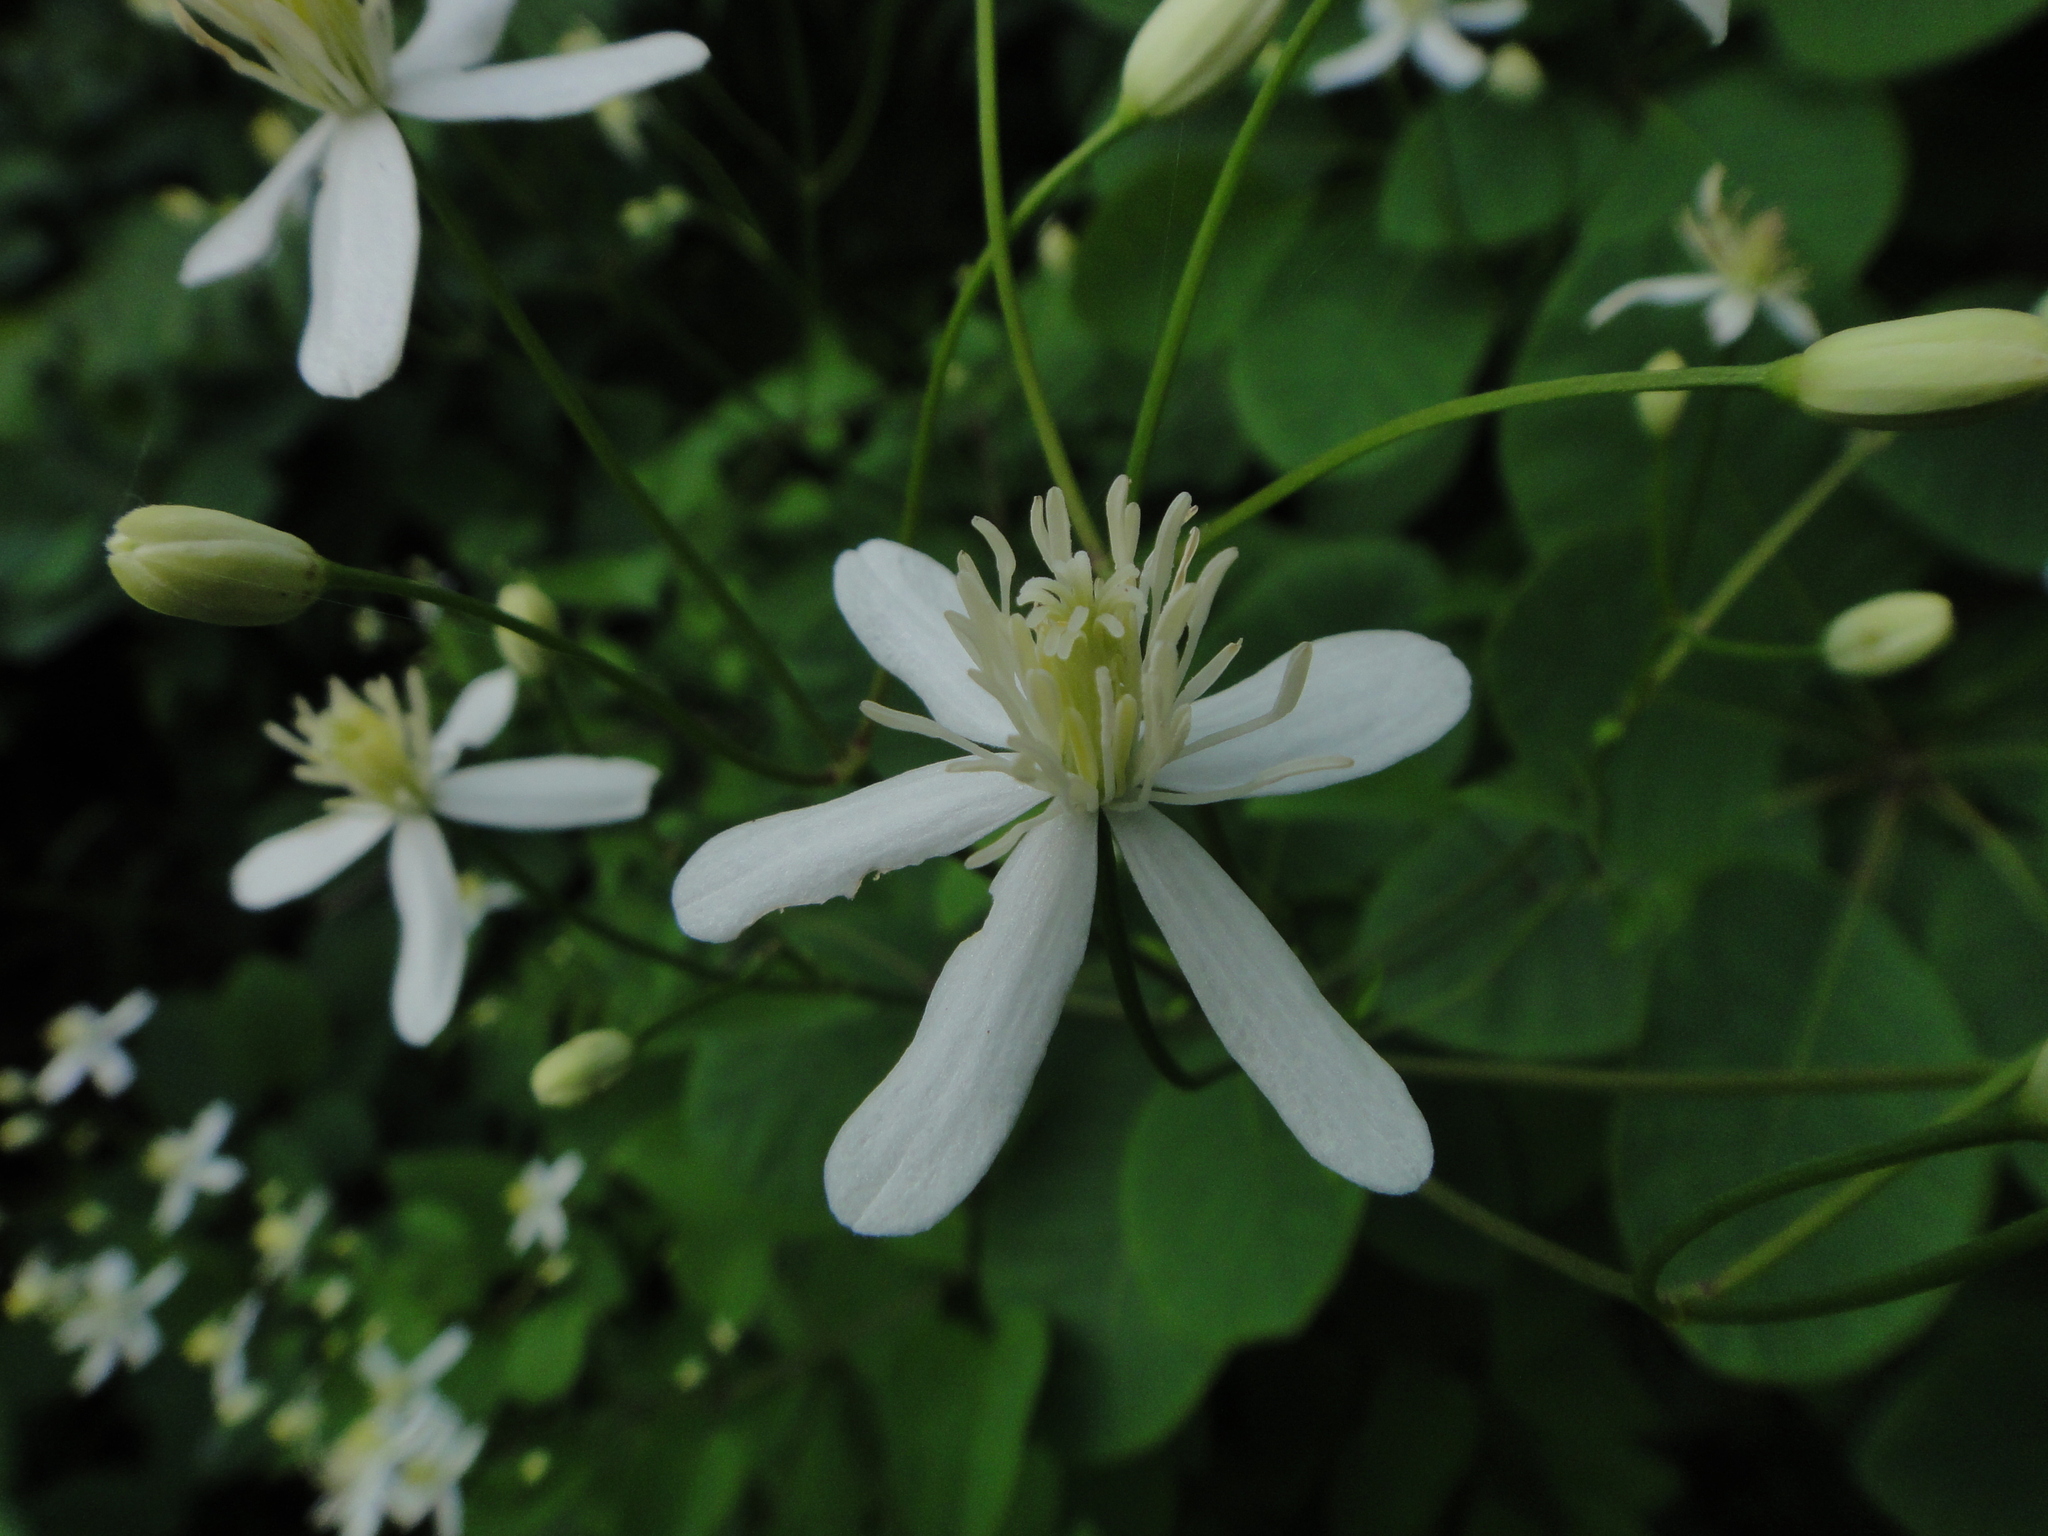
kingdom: Plantae
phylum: Tracheophyta
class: Magnoliopsida
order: Ranunculales
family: Ranunculaceae
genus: Clematis
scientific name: Clematis recta
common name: Ground clematis
